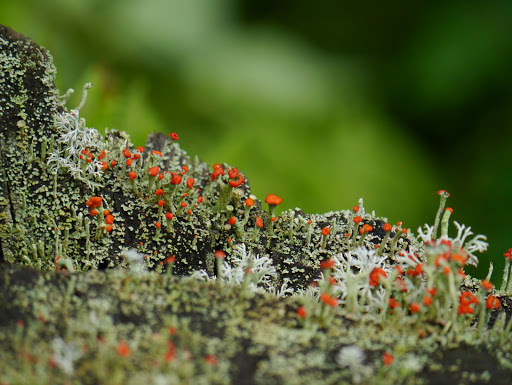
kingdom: Fungi
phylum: Ascomycota
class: Lecanoromycetes
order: Lecanorales
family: Cladoniaceae
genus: Cladonia
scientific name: Cladonia cristatella
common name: British soldier lichen
